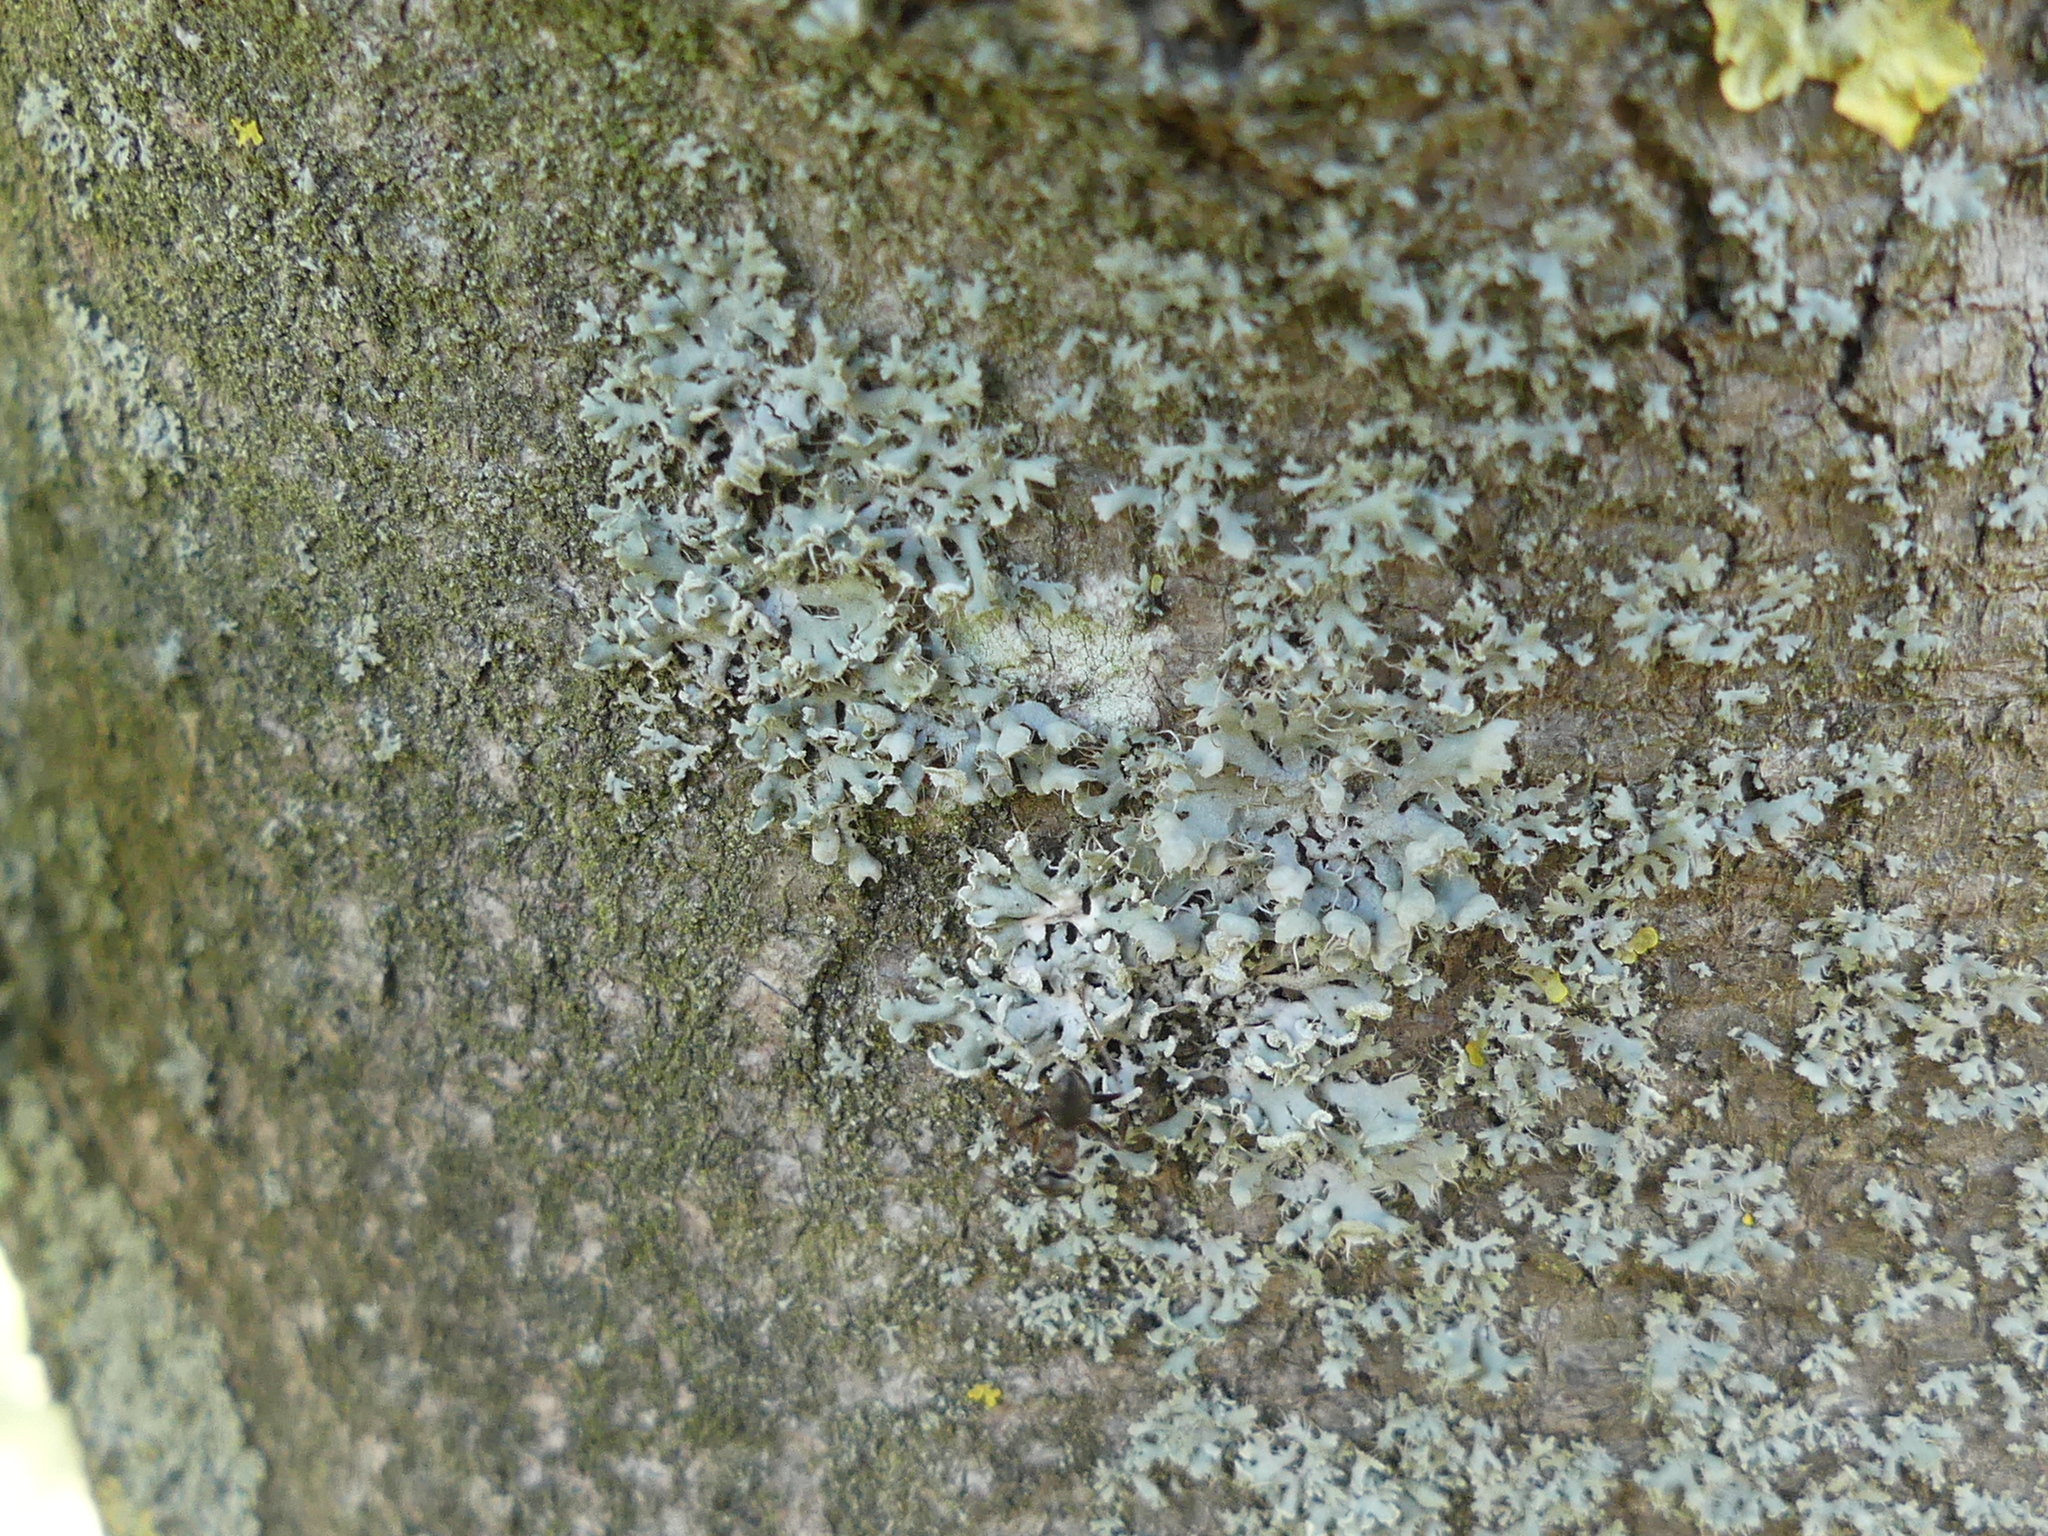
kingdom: Fungi
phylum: Ascomycota
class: Lecanoromycetes
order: Caliciales
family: Physciaceae
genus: Physcia
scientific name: Physcia adscendens
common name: Hooded rosette lichen
